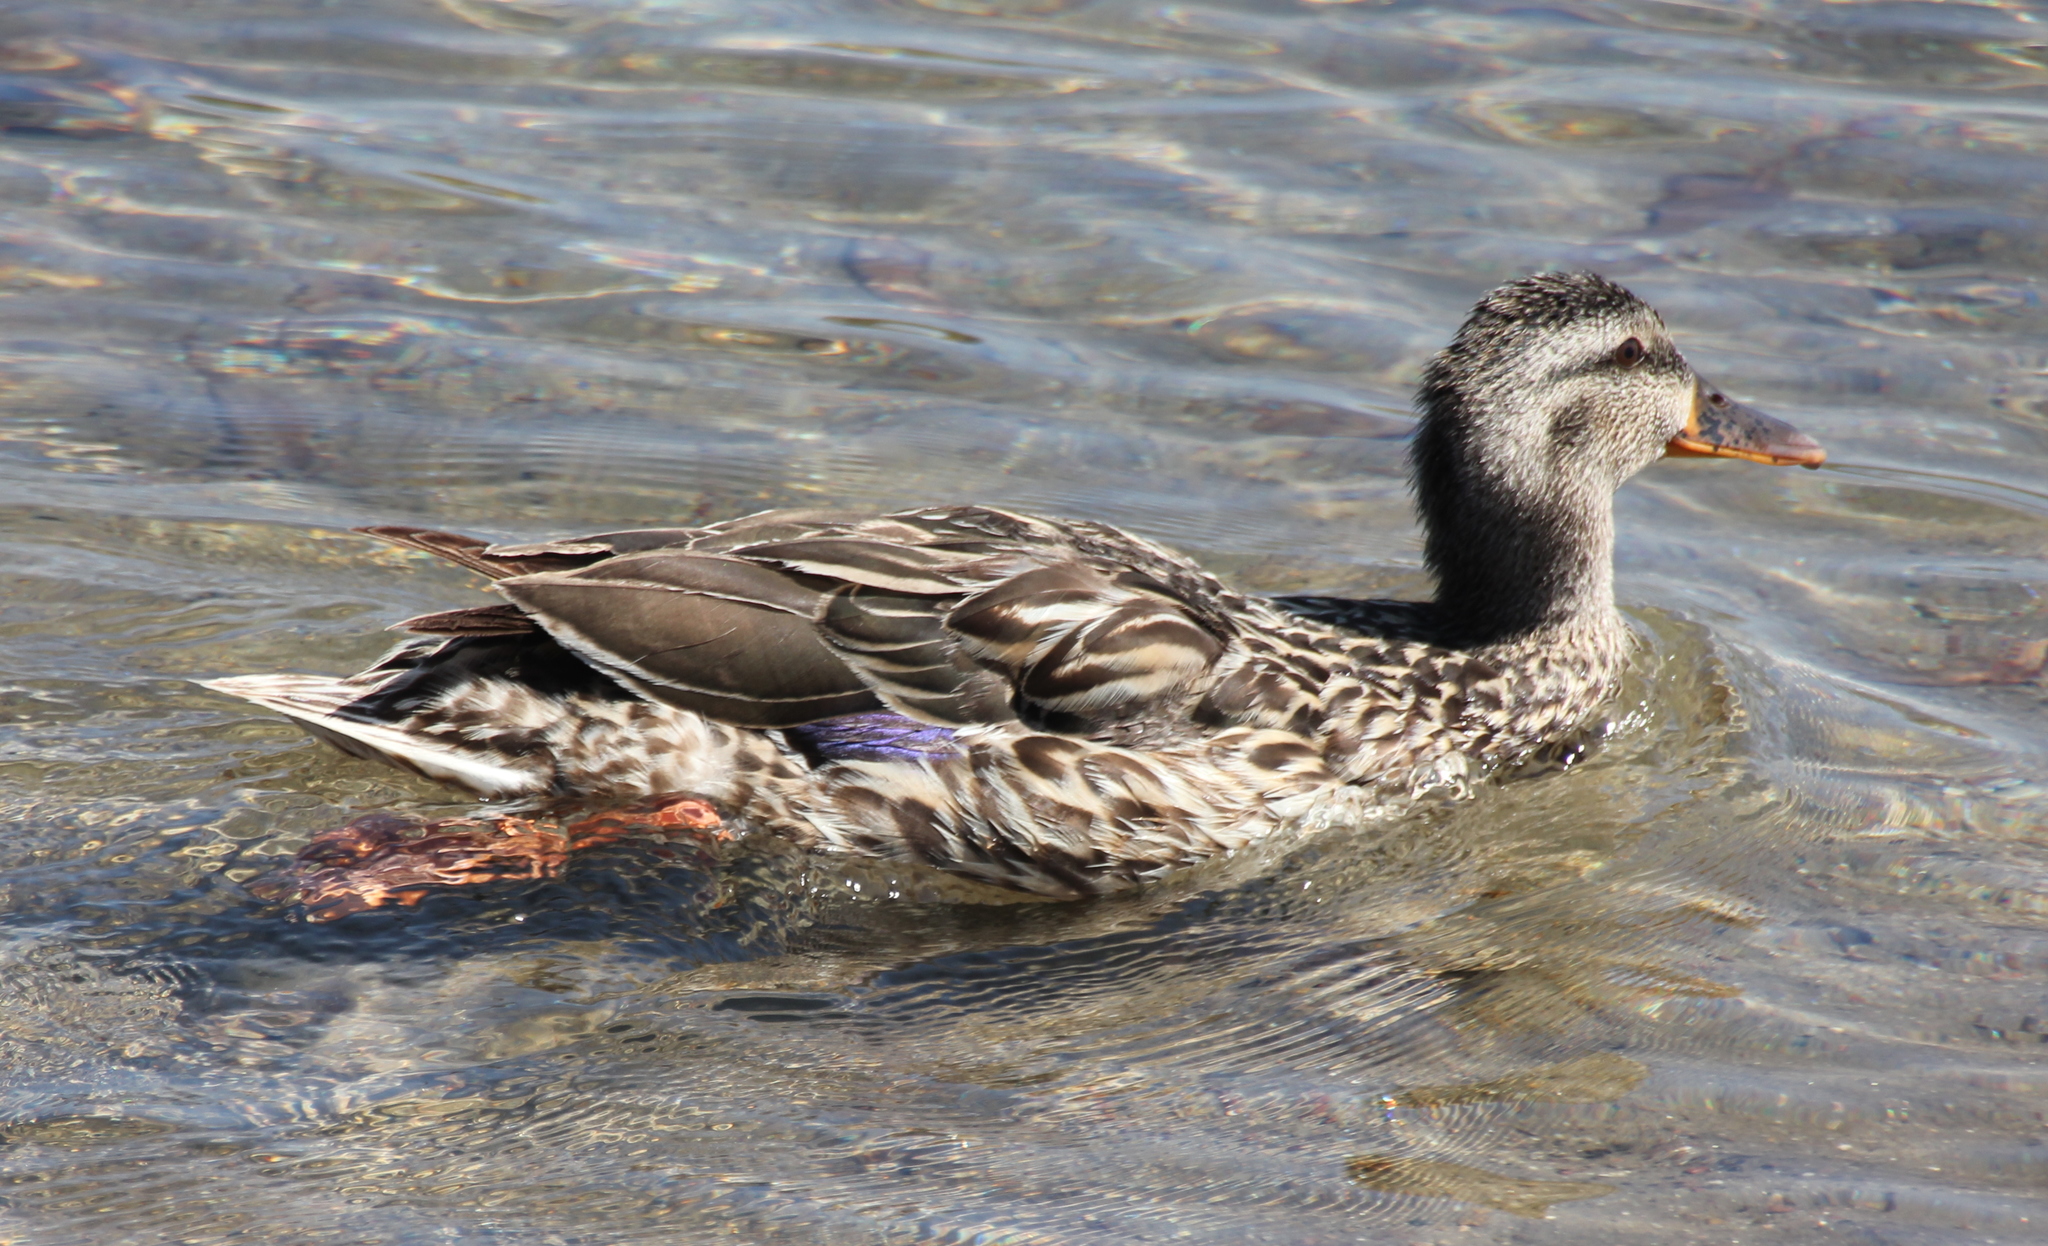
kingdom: Animalia
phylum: Chordata
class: Aves
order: Anseriformes
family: Anatidae
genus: Anas
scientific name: Anas platyrhynchos
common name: Mallard
